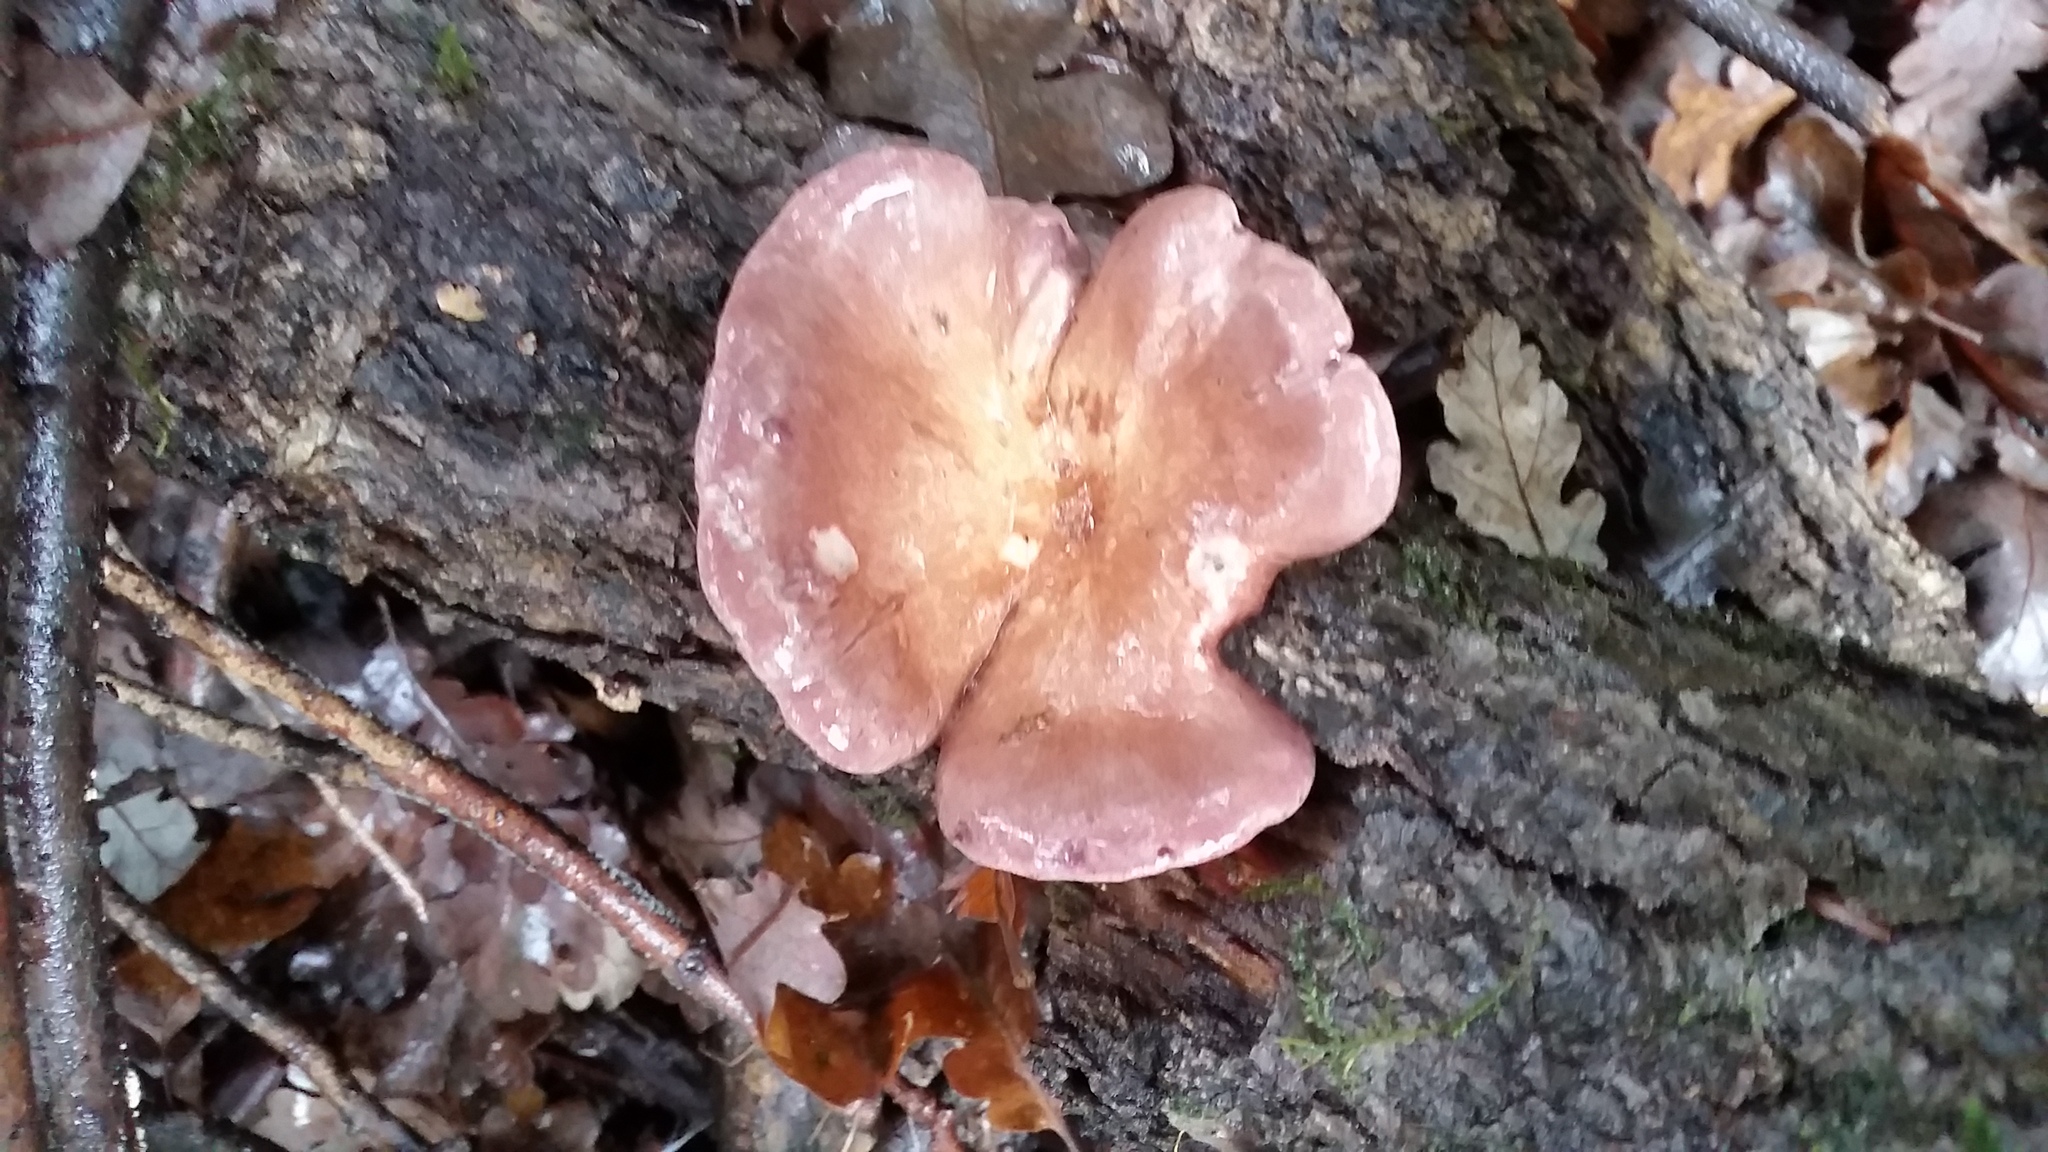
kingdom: Fungi
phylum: Basidiomycota
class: Agaricomycetes
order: Polyporales
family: Panaceae
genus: Panus
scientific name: Panus conchatus
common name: Lilac oysterling
